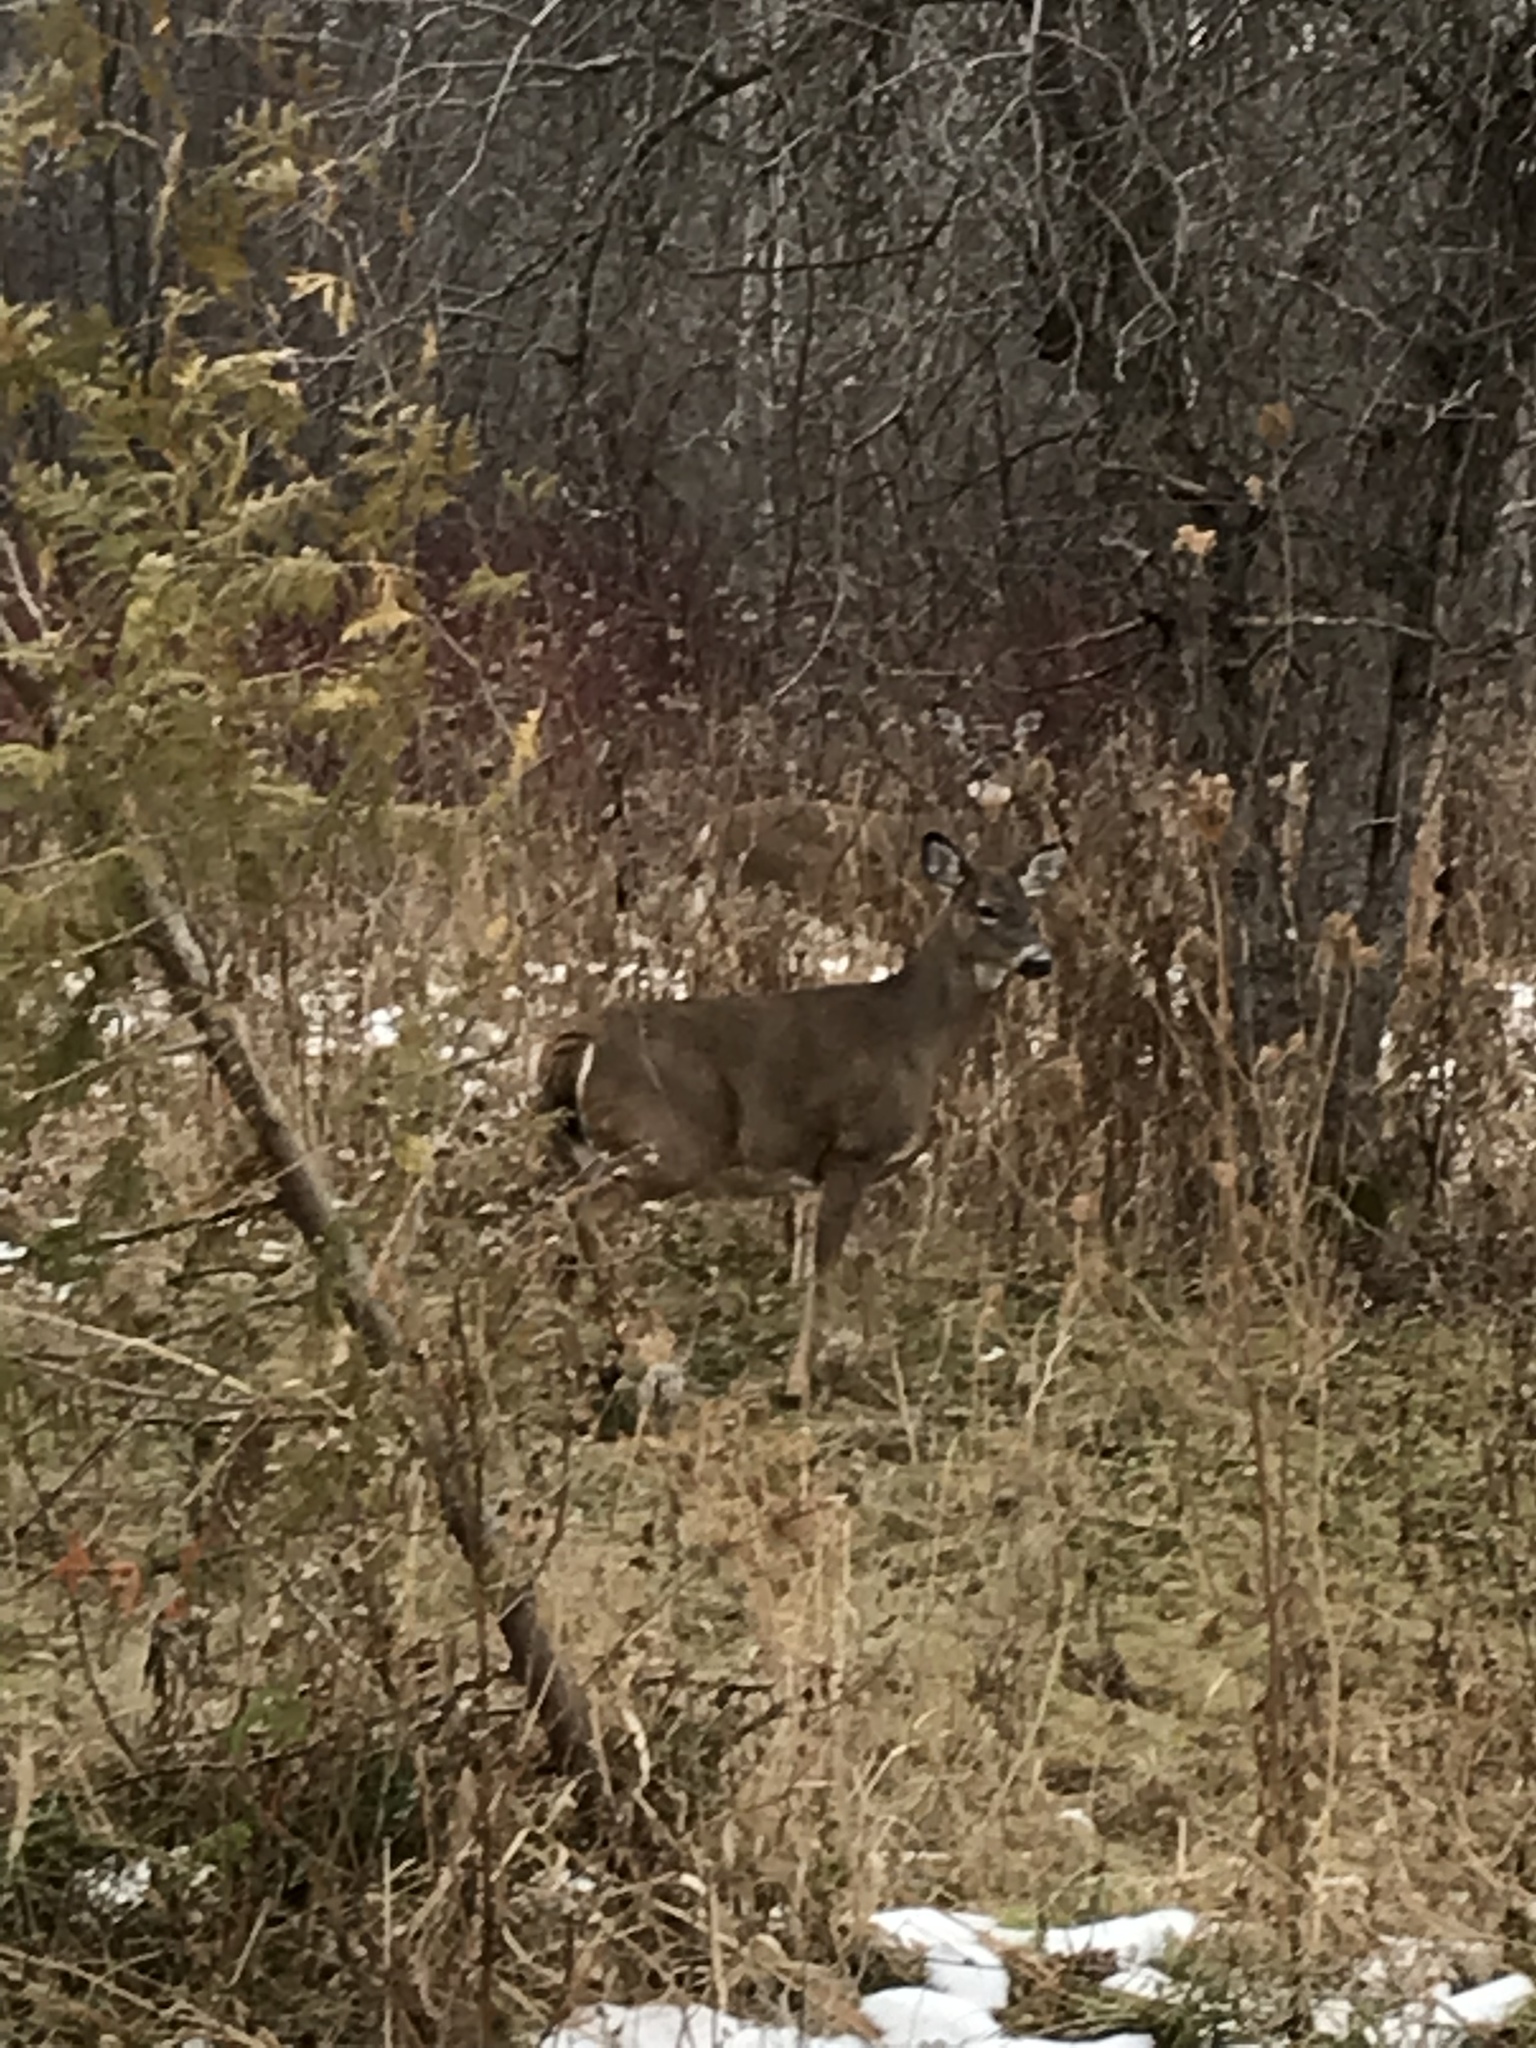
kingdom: Animalia
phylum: Chordata
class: Mammalia
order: Artiodactyla
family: Cervidae
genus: Odocoileus
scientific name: Odocoileus virginianus
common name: White-tailed deer
